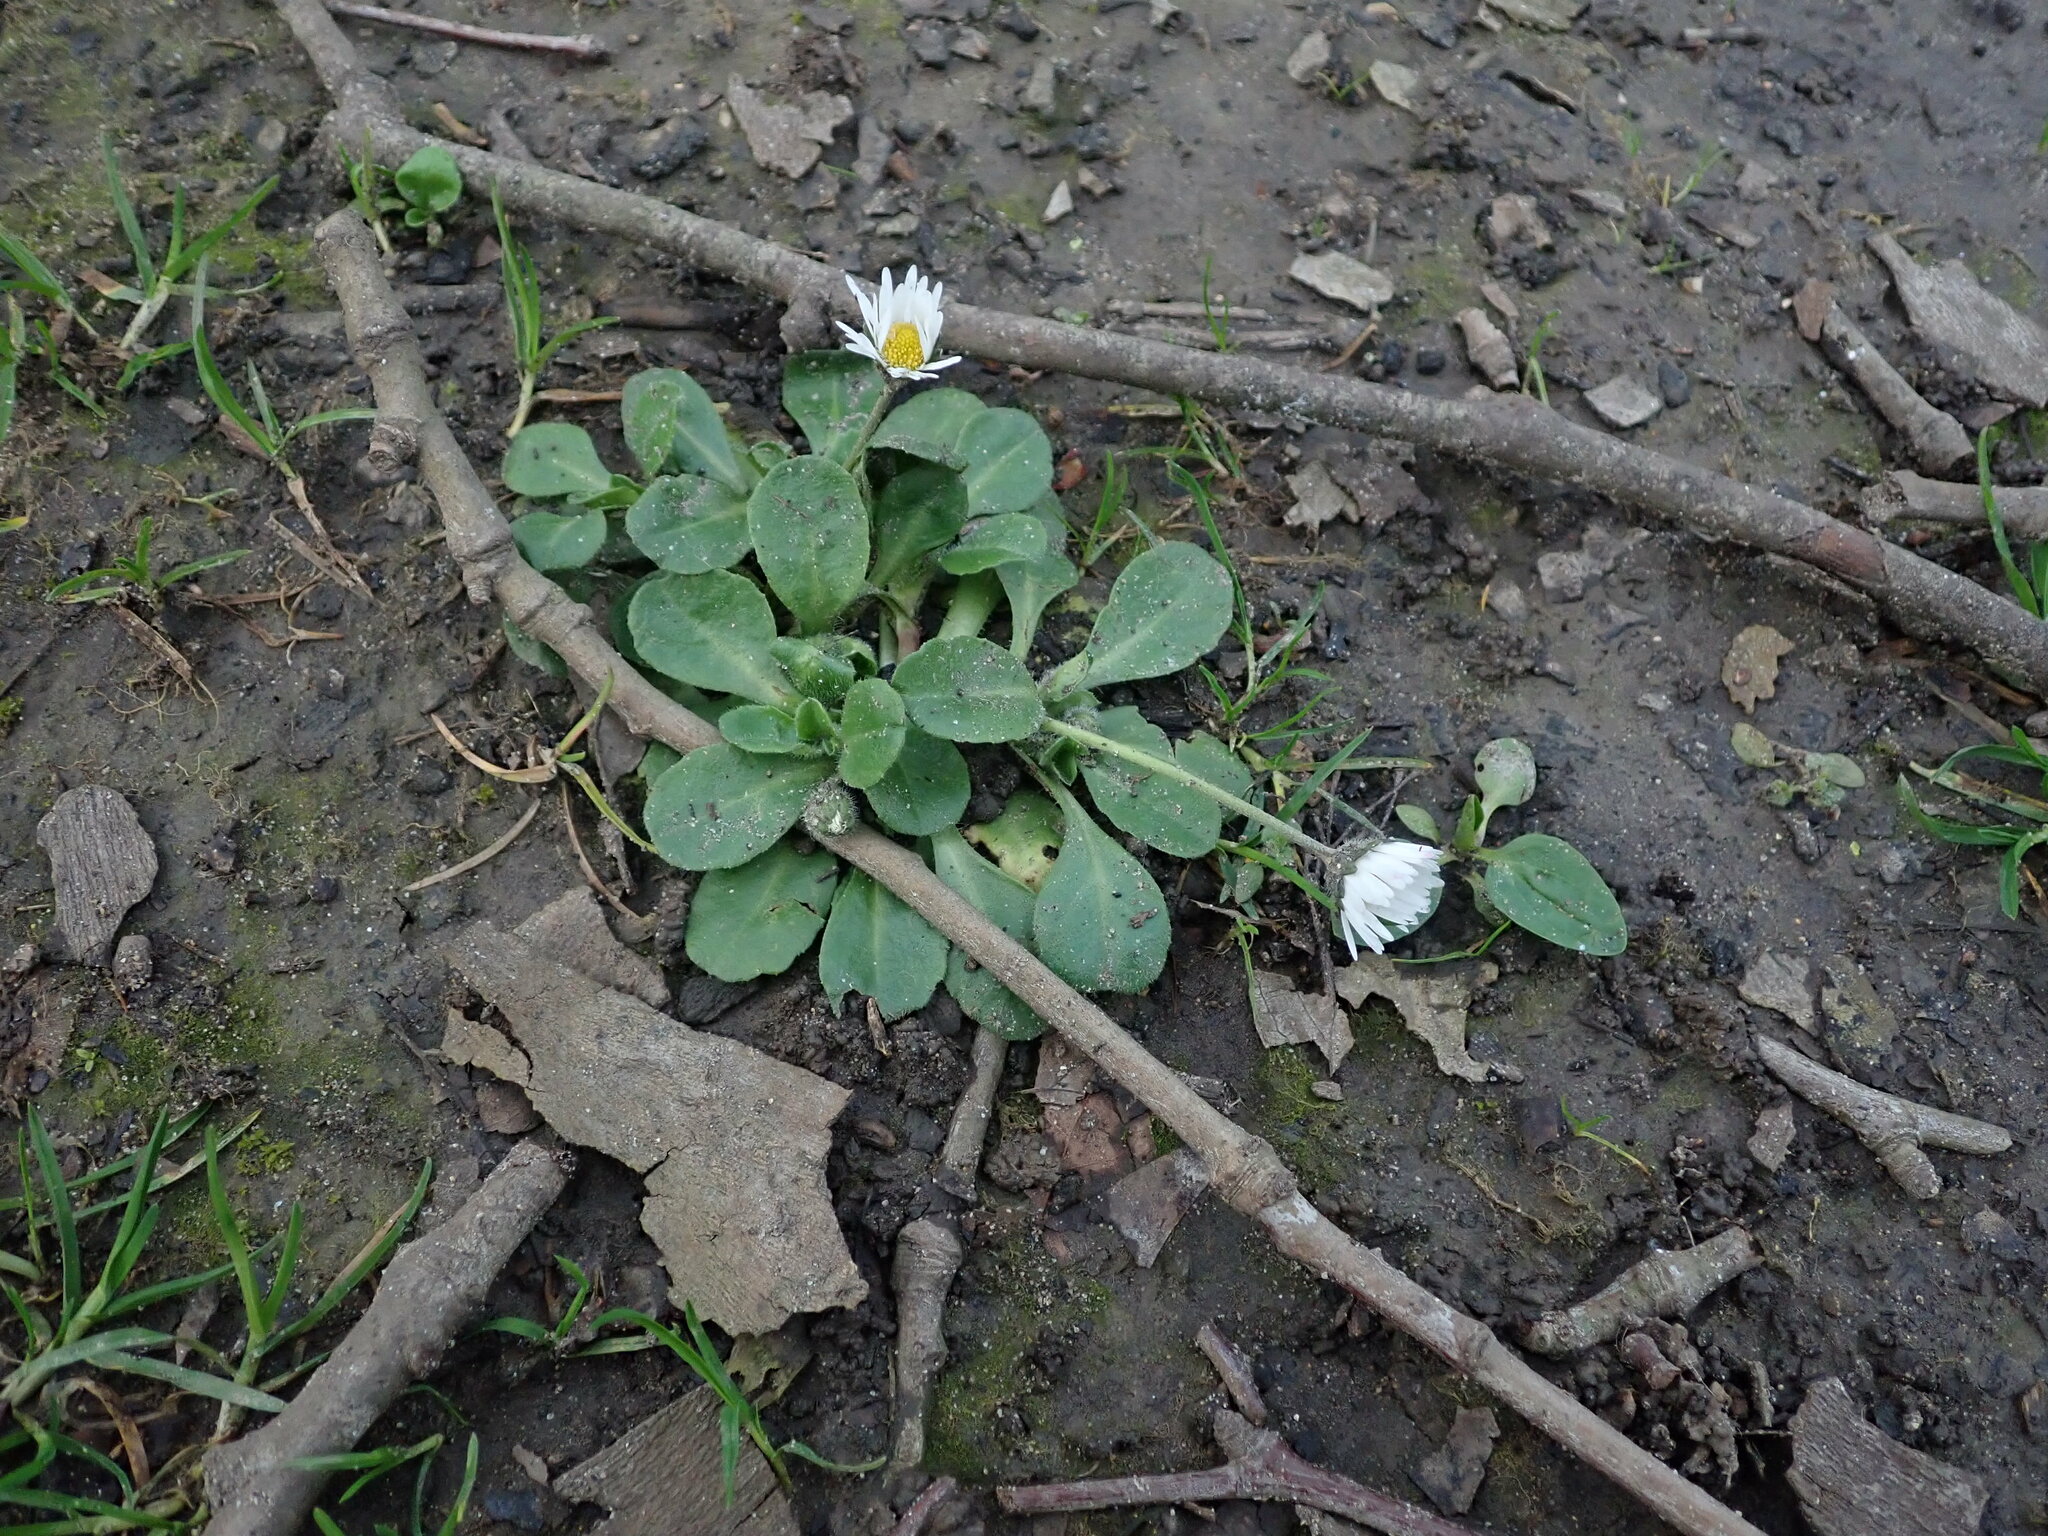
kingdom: Plantae
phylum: Tracheophyta
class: Magnoliopsida
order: Asterales
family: Asteraceae
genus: Bellis
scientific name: Bellis perennis
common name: Lawndaisy
